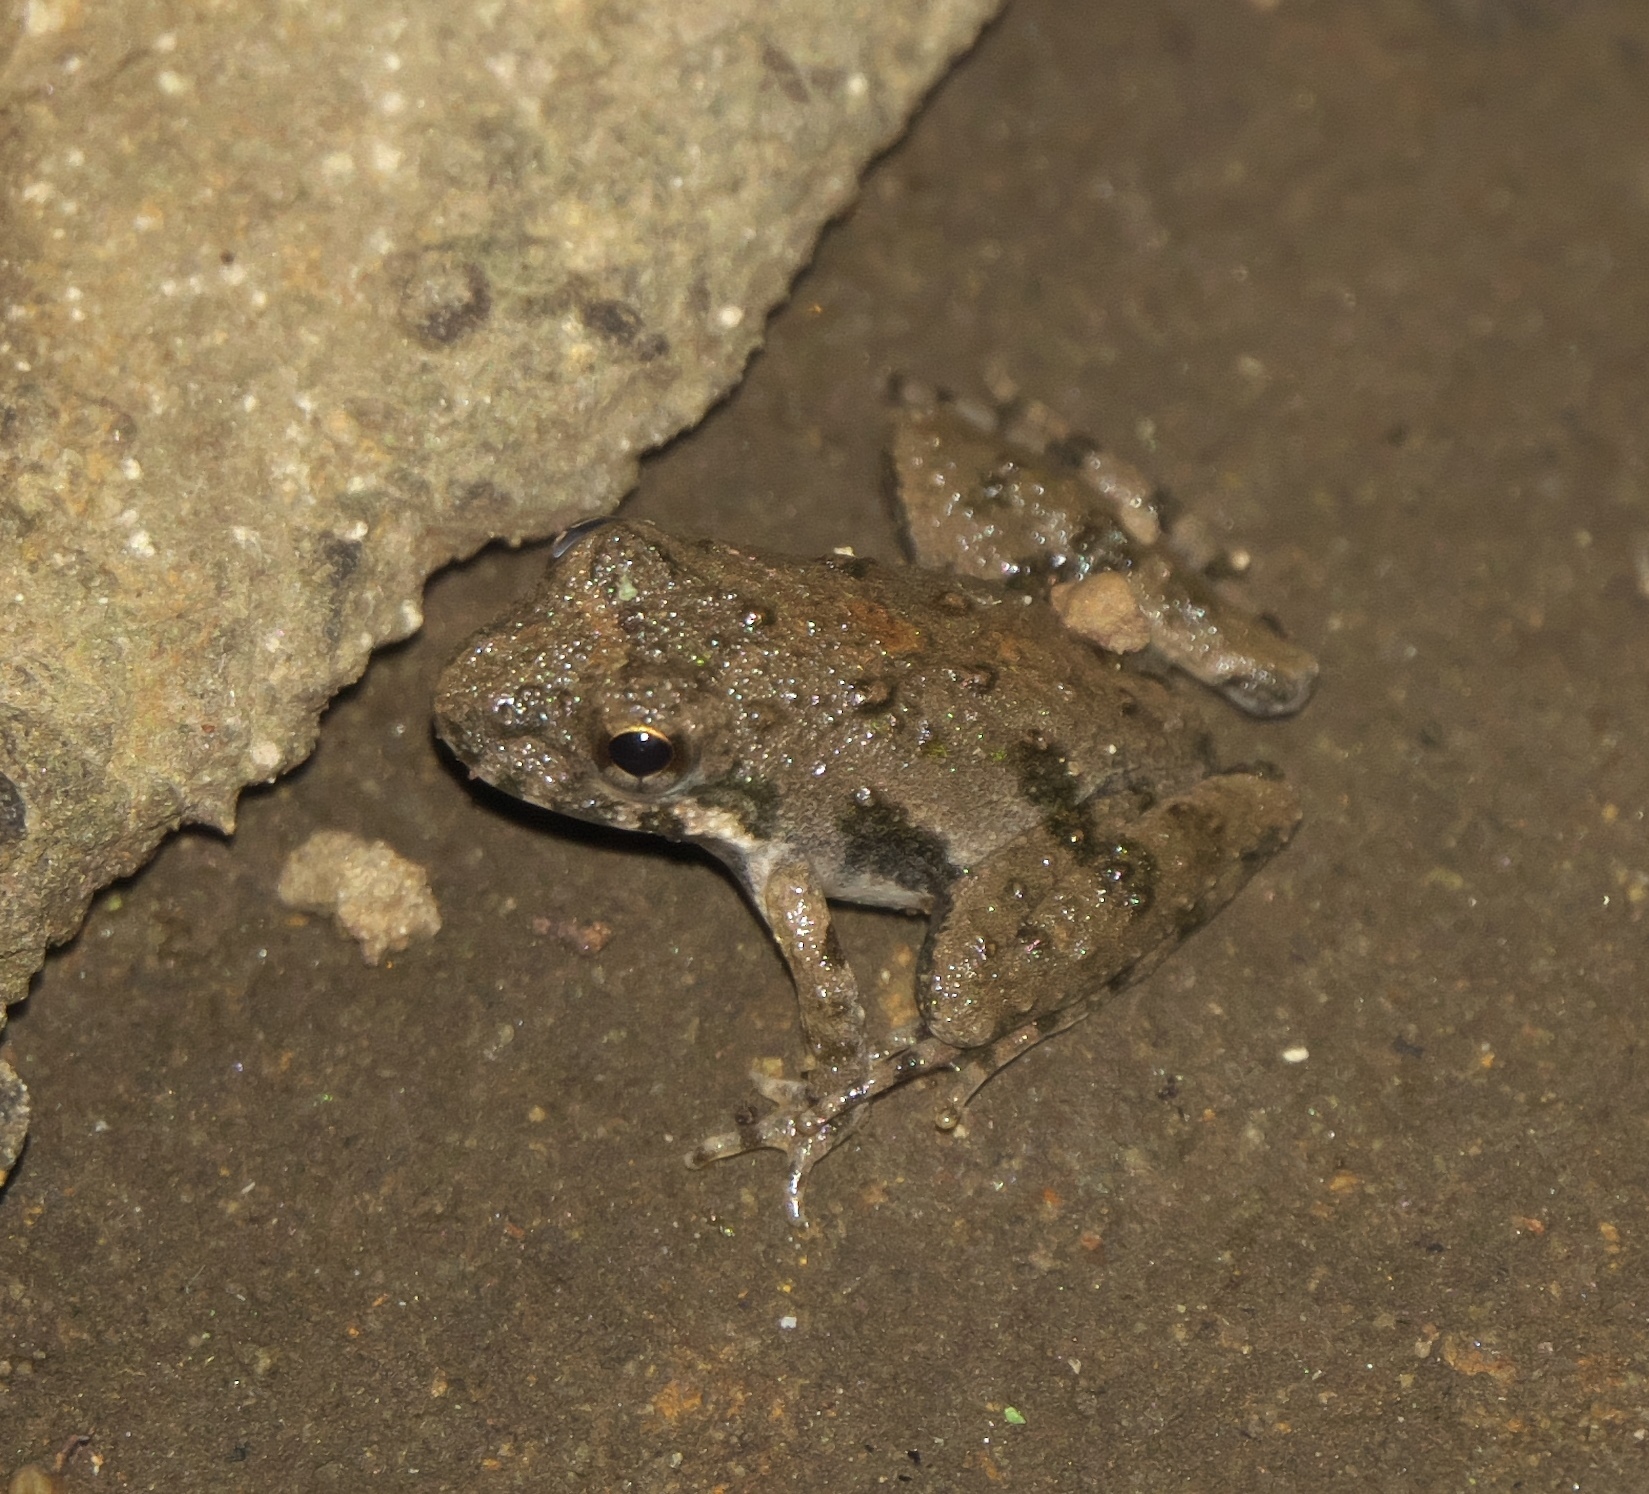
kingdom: Animalia
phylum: Chordata
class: Amphibia
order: Anura
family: Hylidae
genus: Acris
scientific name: Acris blanchardi
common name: Blanchard's cricket frog
